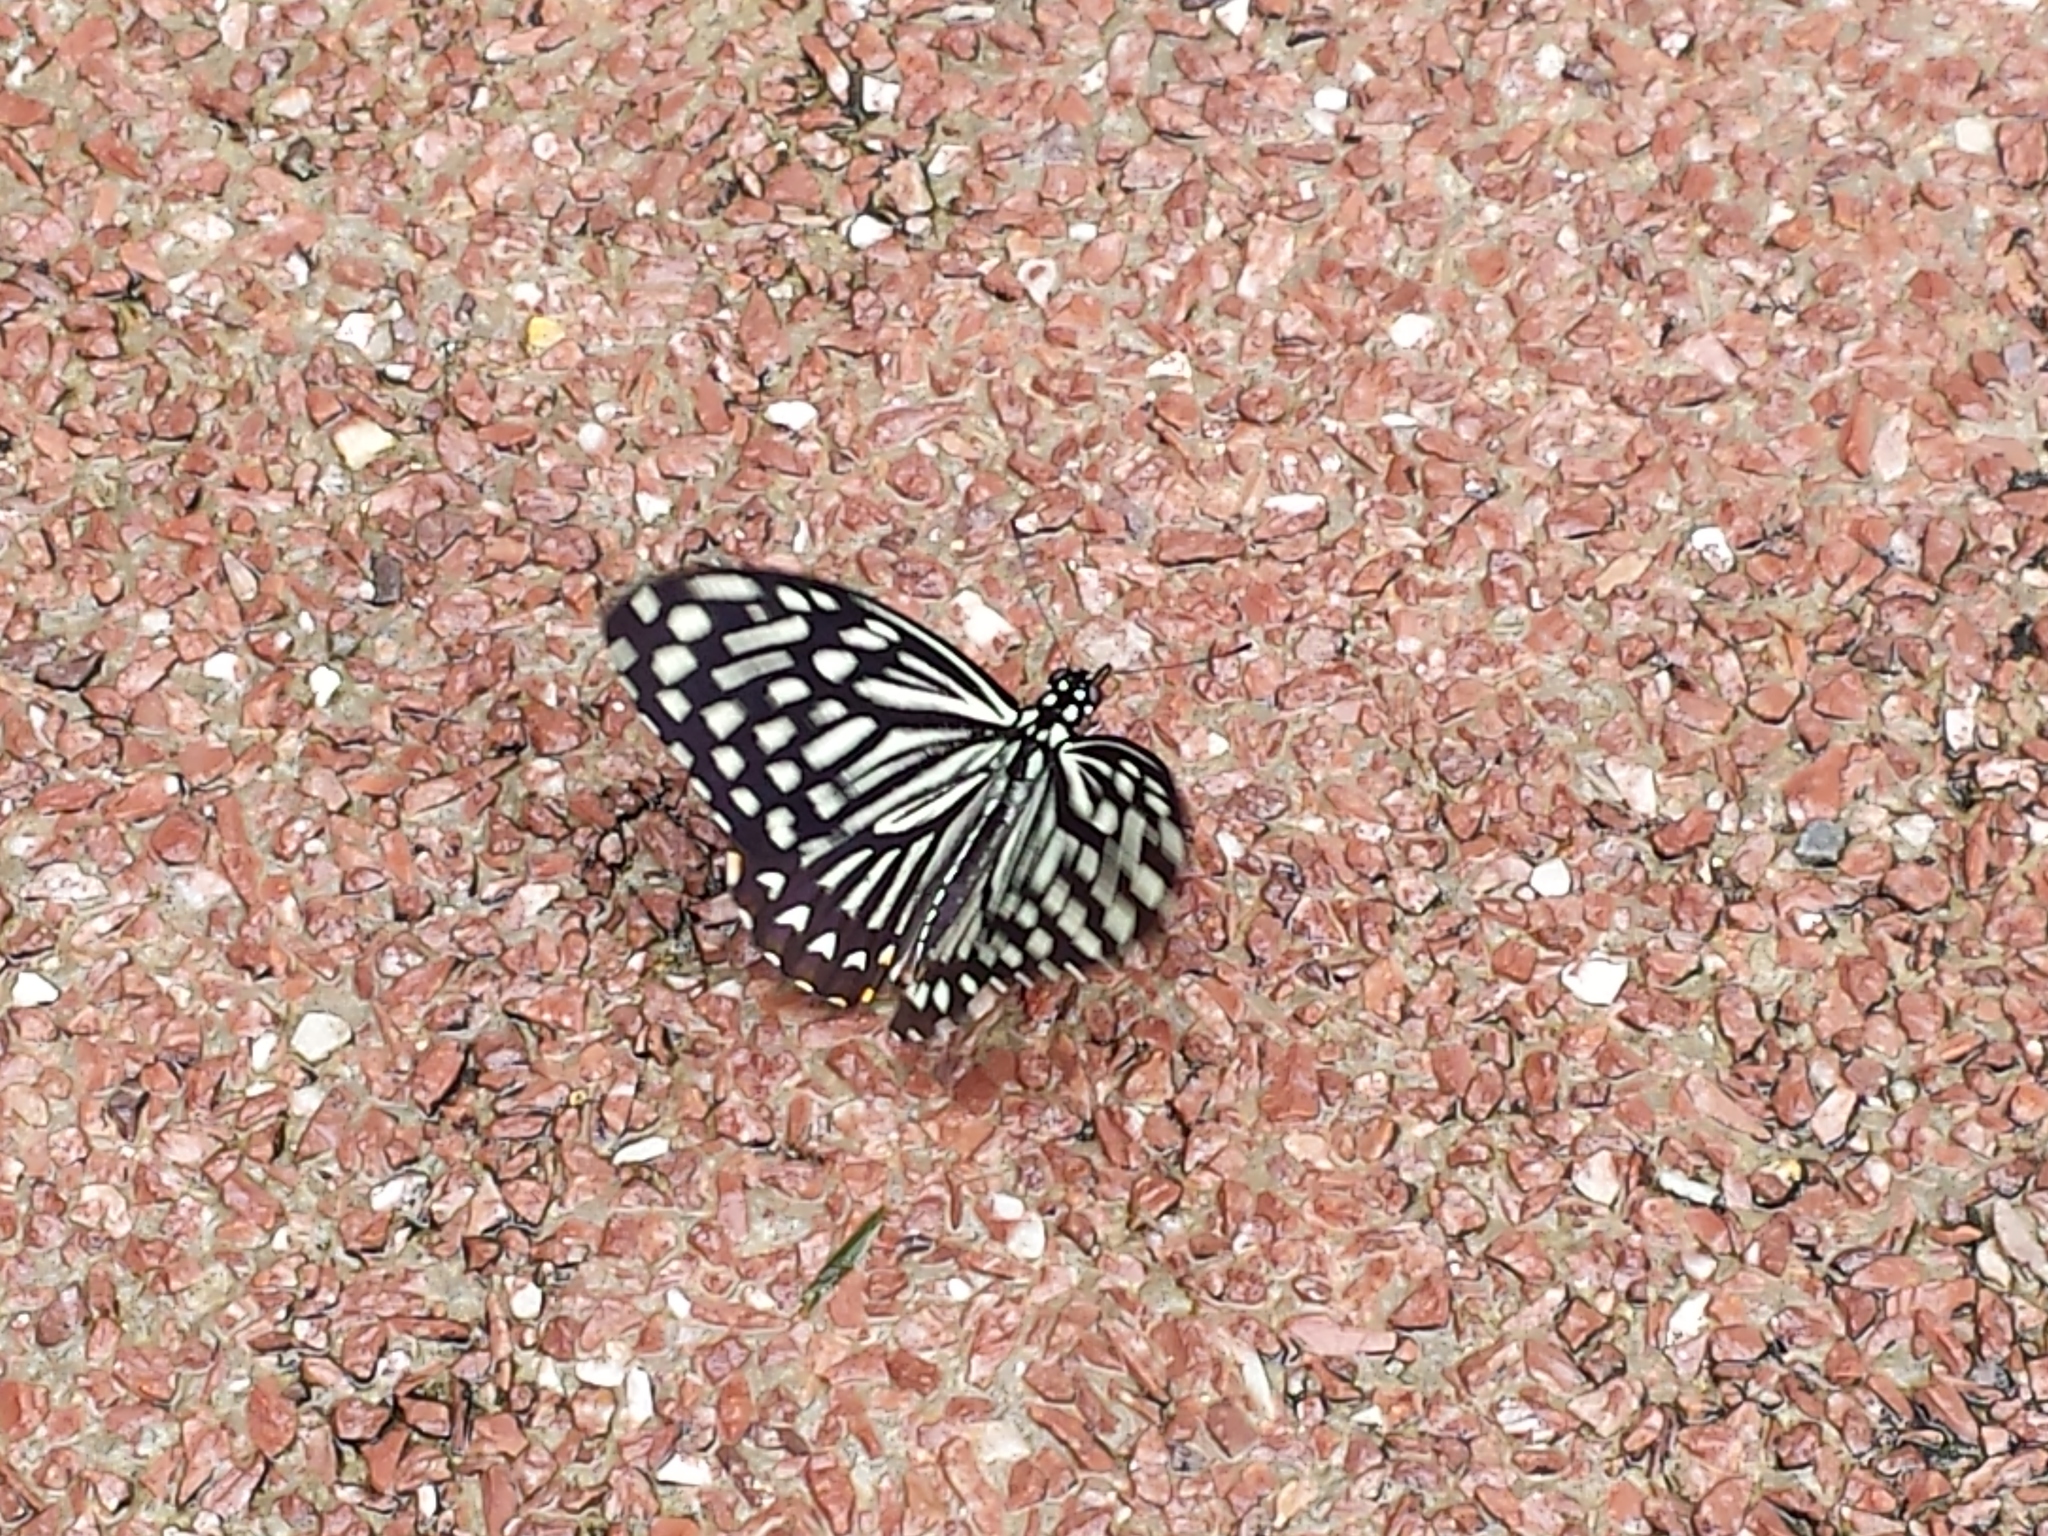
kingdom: Animalia
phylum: Arthropoda
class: Insecta
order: Lepidoptera
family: Papilionidae
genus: Chilasa
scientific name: Chilasa clytia
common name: Common mime
